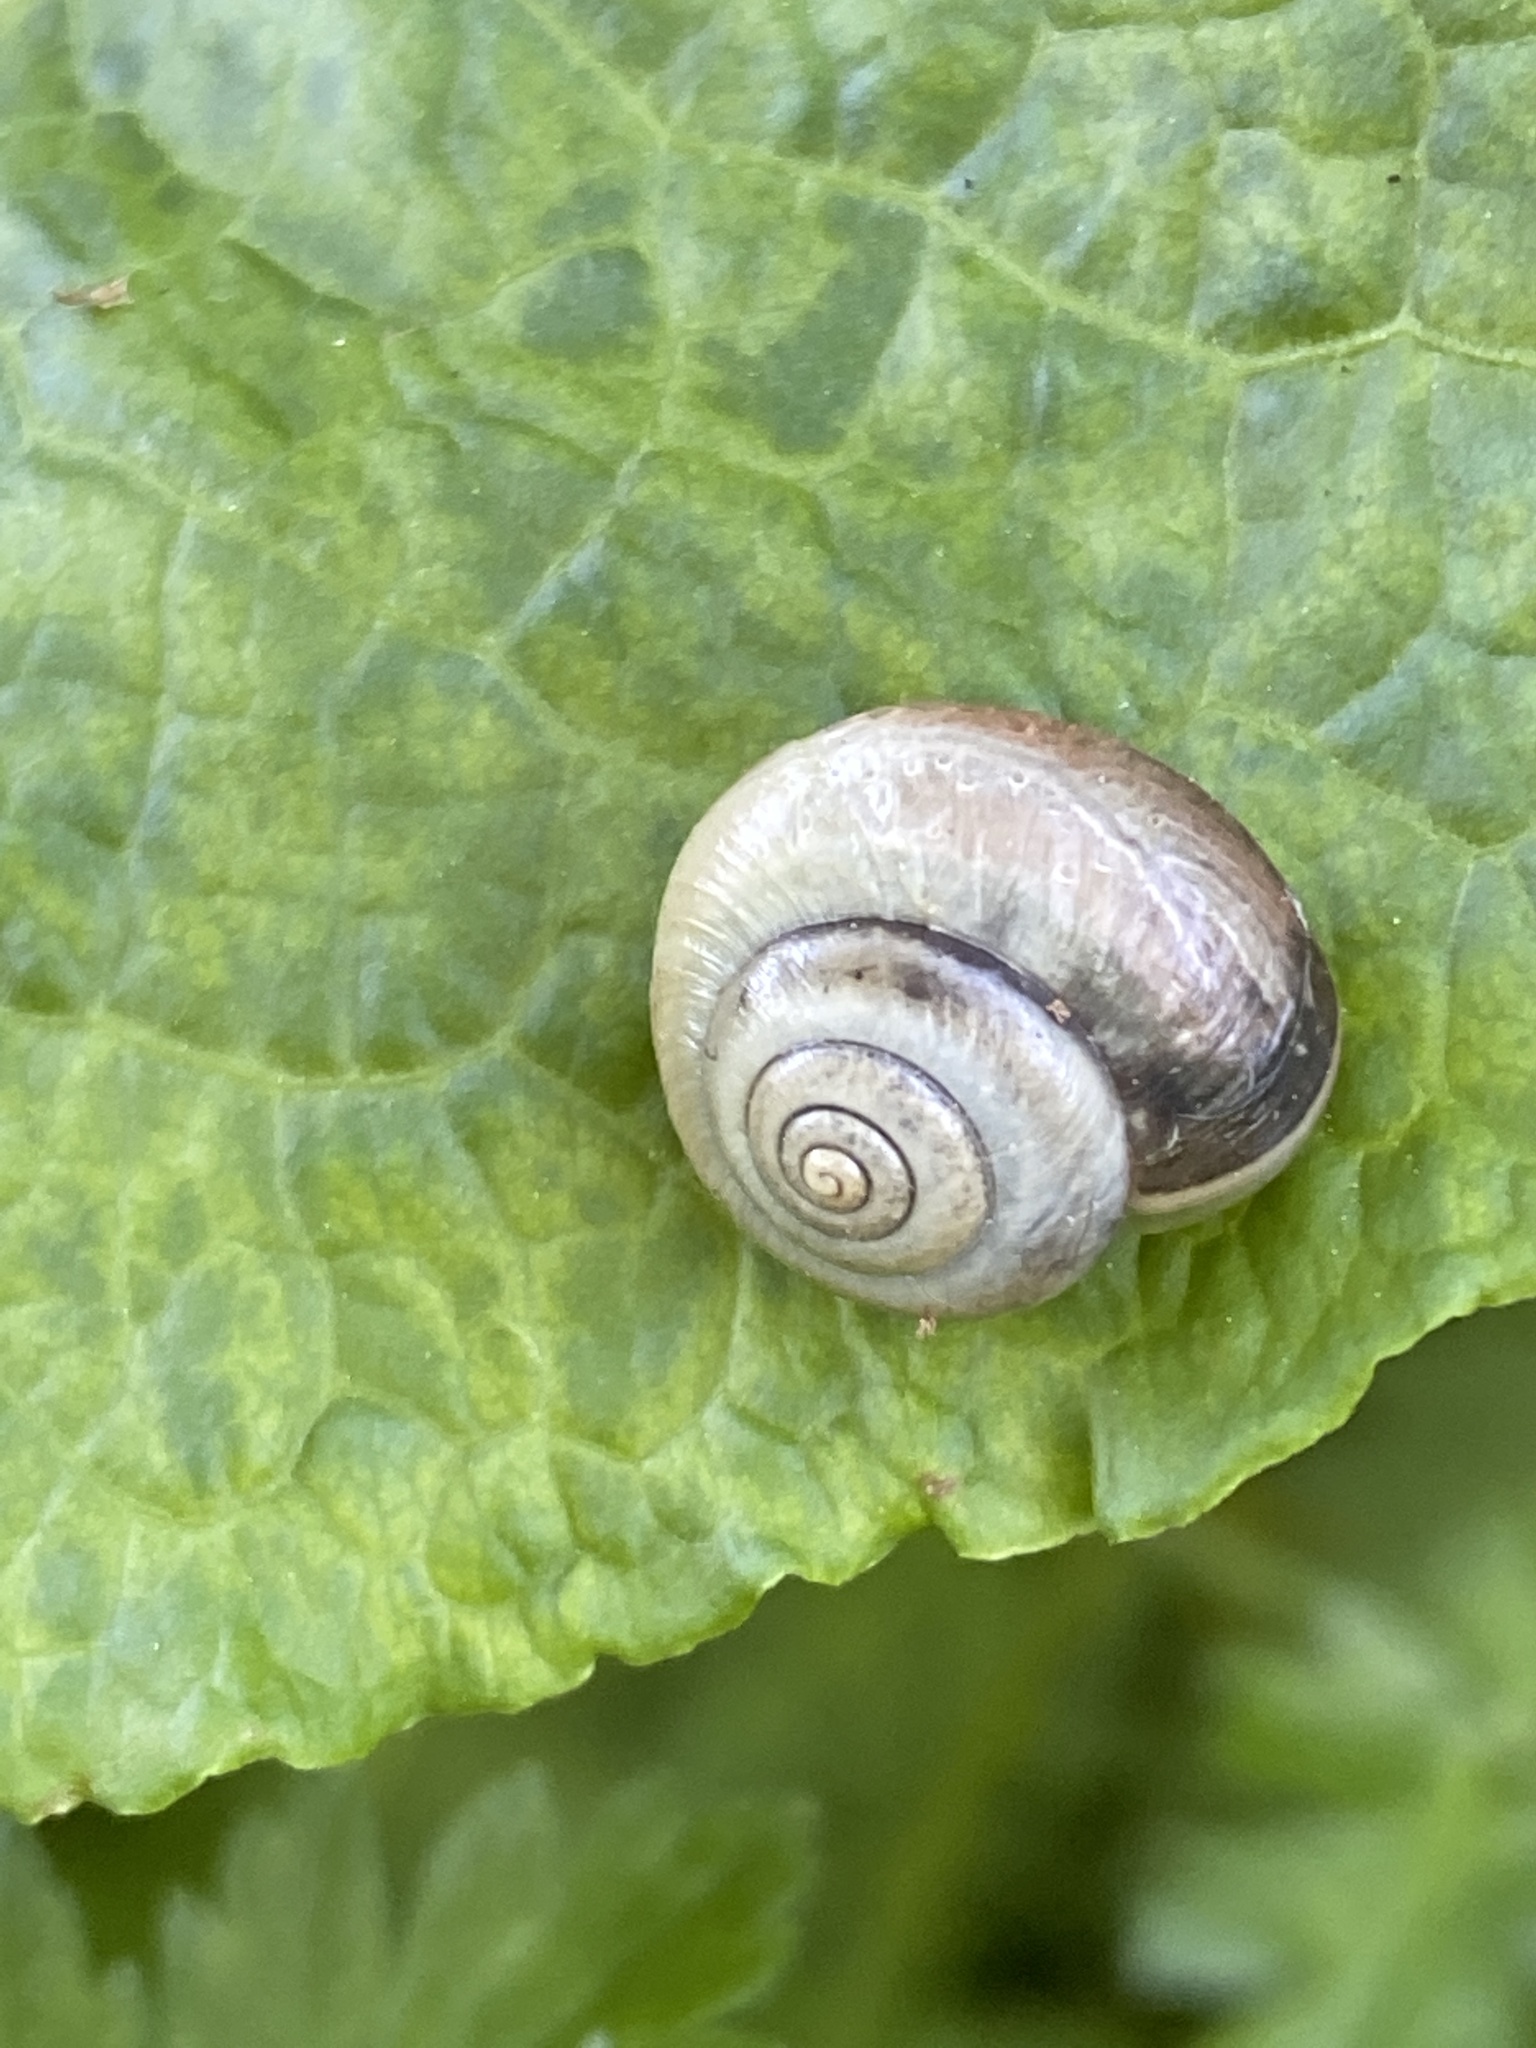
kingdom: Animalia
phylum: Mollusca
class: Gastropoda
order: Stylommatophora
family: Hygromiidae
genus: Monacha
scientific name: Monacha cantiana
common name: Kentish snail
